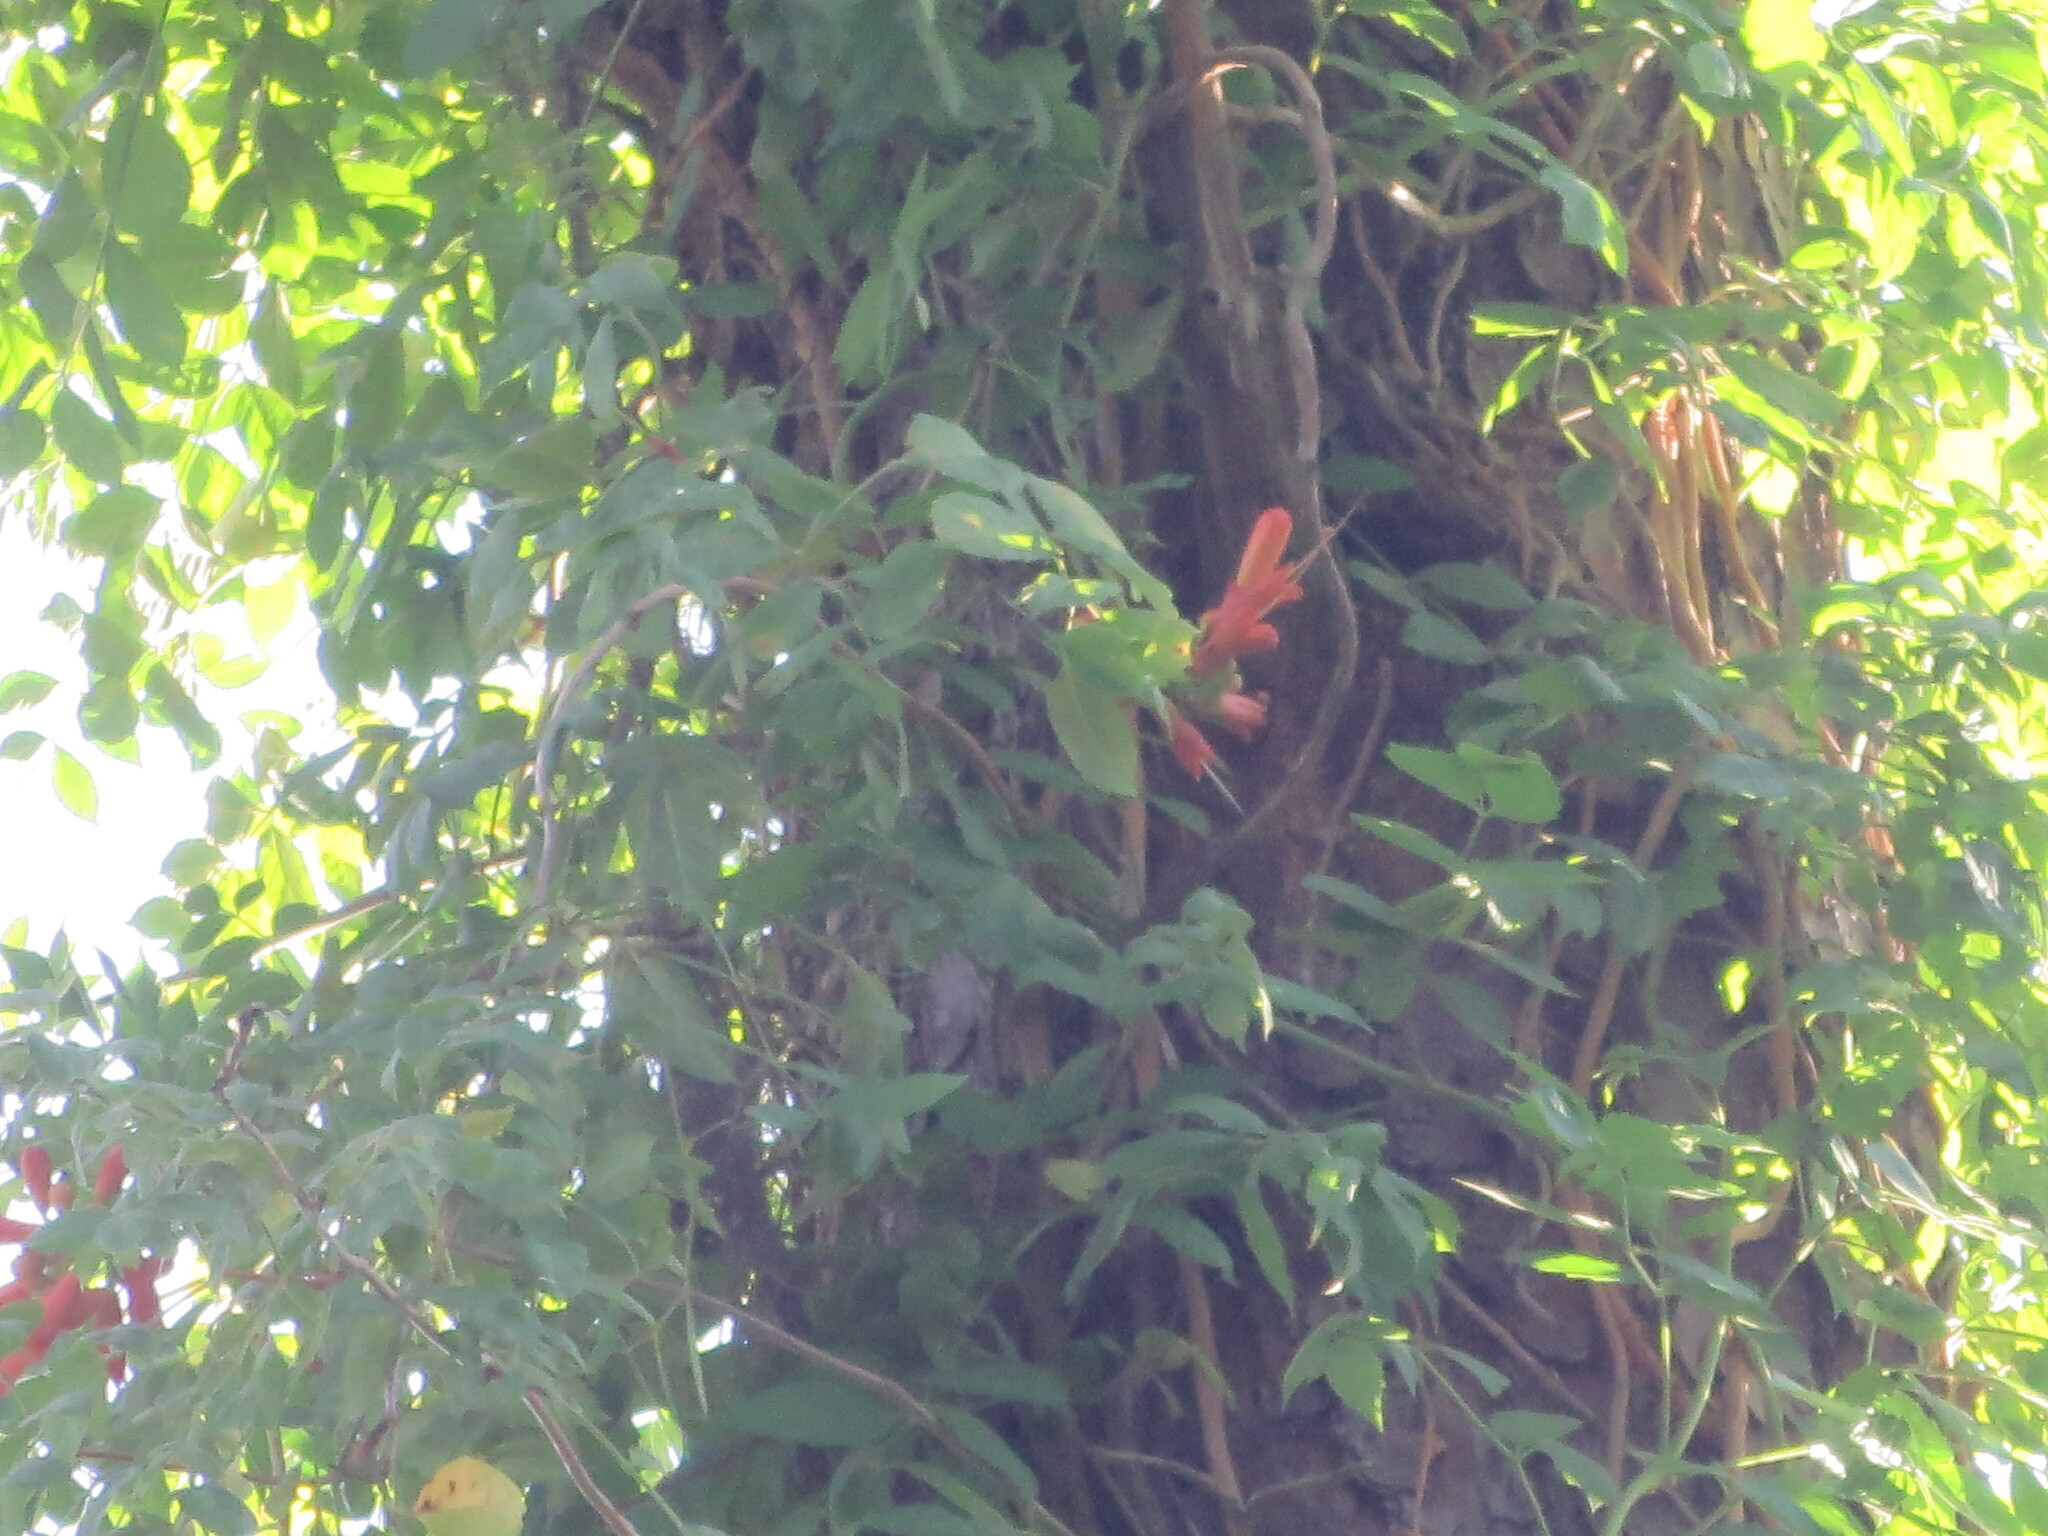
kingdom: Plantae
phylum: Tracheophyta
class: Magnoliopsida
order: Lamiales
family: Bignoniaceae
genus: Campsis
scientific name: Campsis radicans
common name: Trumpet-creeper
